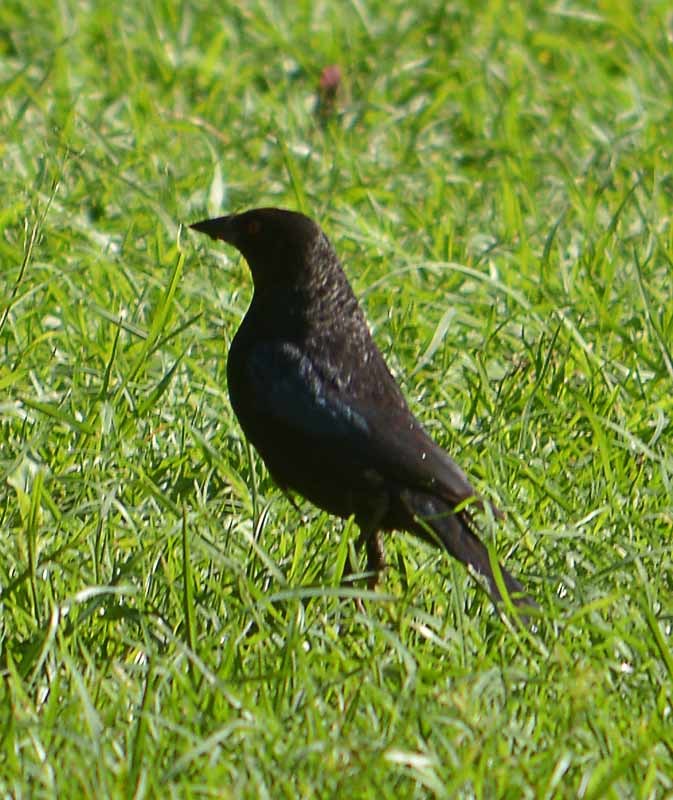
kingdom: Animalia
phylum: Chordata
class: Aves
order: Passeriformes
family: Icteridae
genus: Molothrus
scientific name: Molothrus aeneus
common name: Bronzed cowbird
